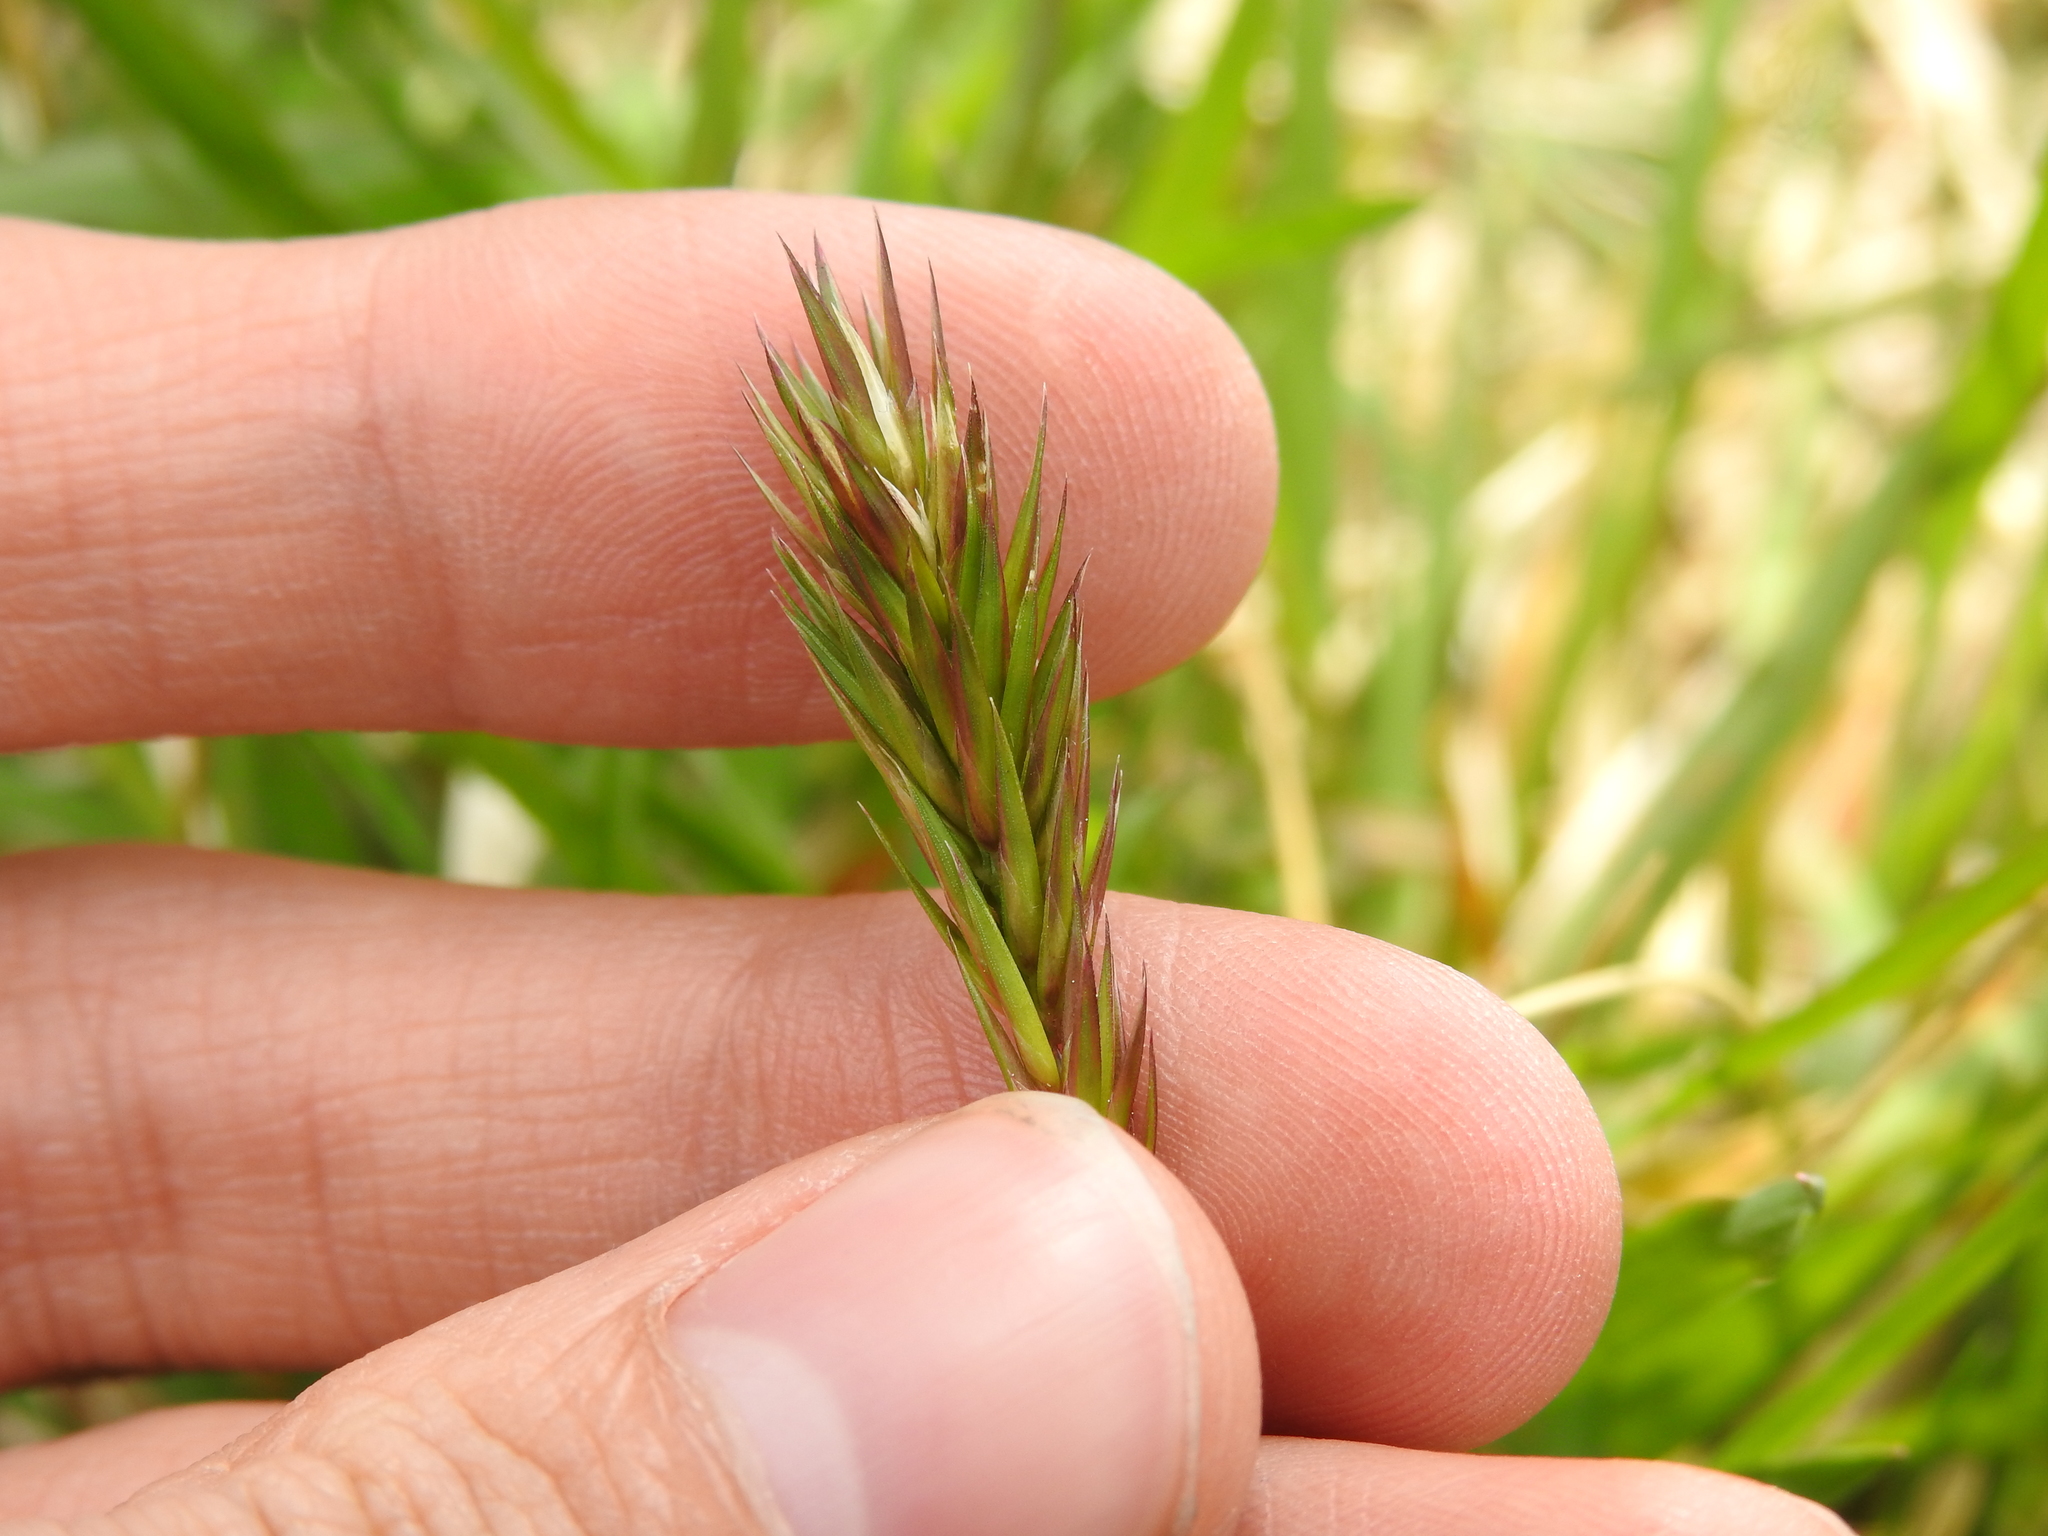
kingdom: Plantae
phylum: Tracheophyta
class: Liliopsida
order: Poales
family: Poaceae
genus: Anthoxanthum
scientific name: Anthoxanthum odoratum
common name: Sweet vernalgrass
